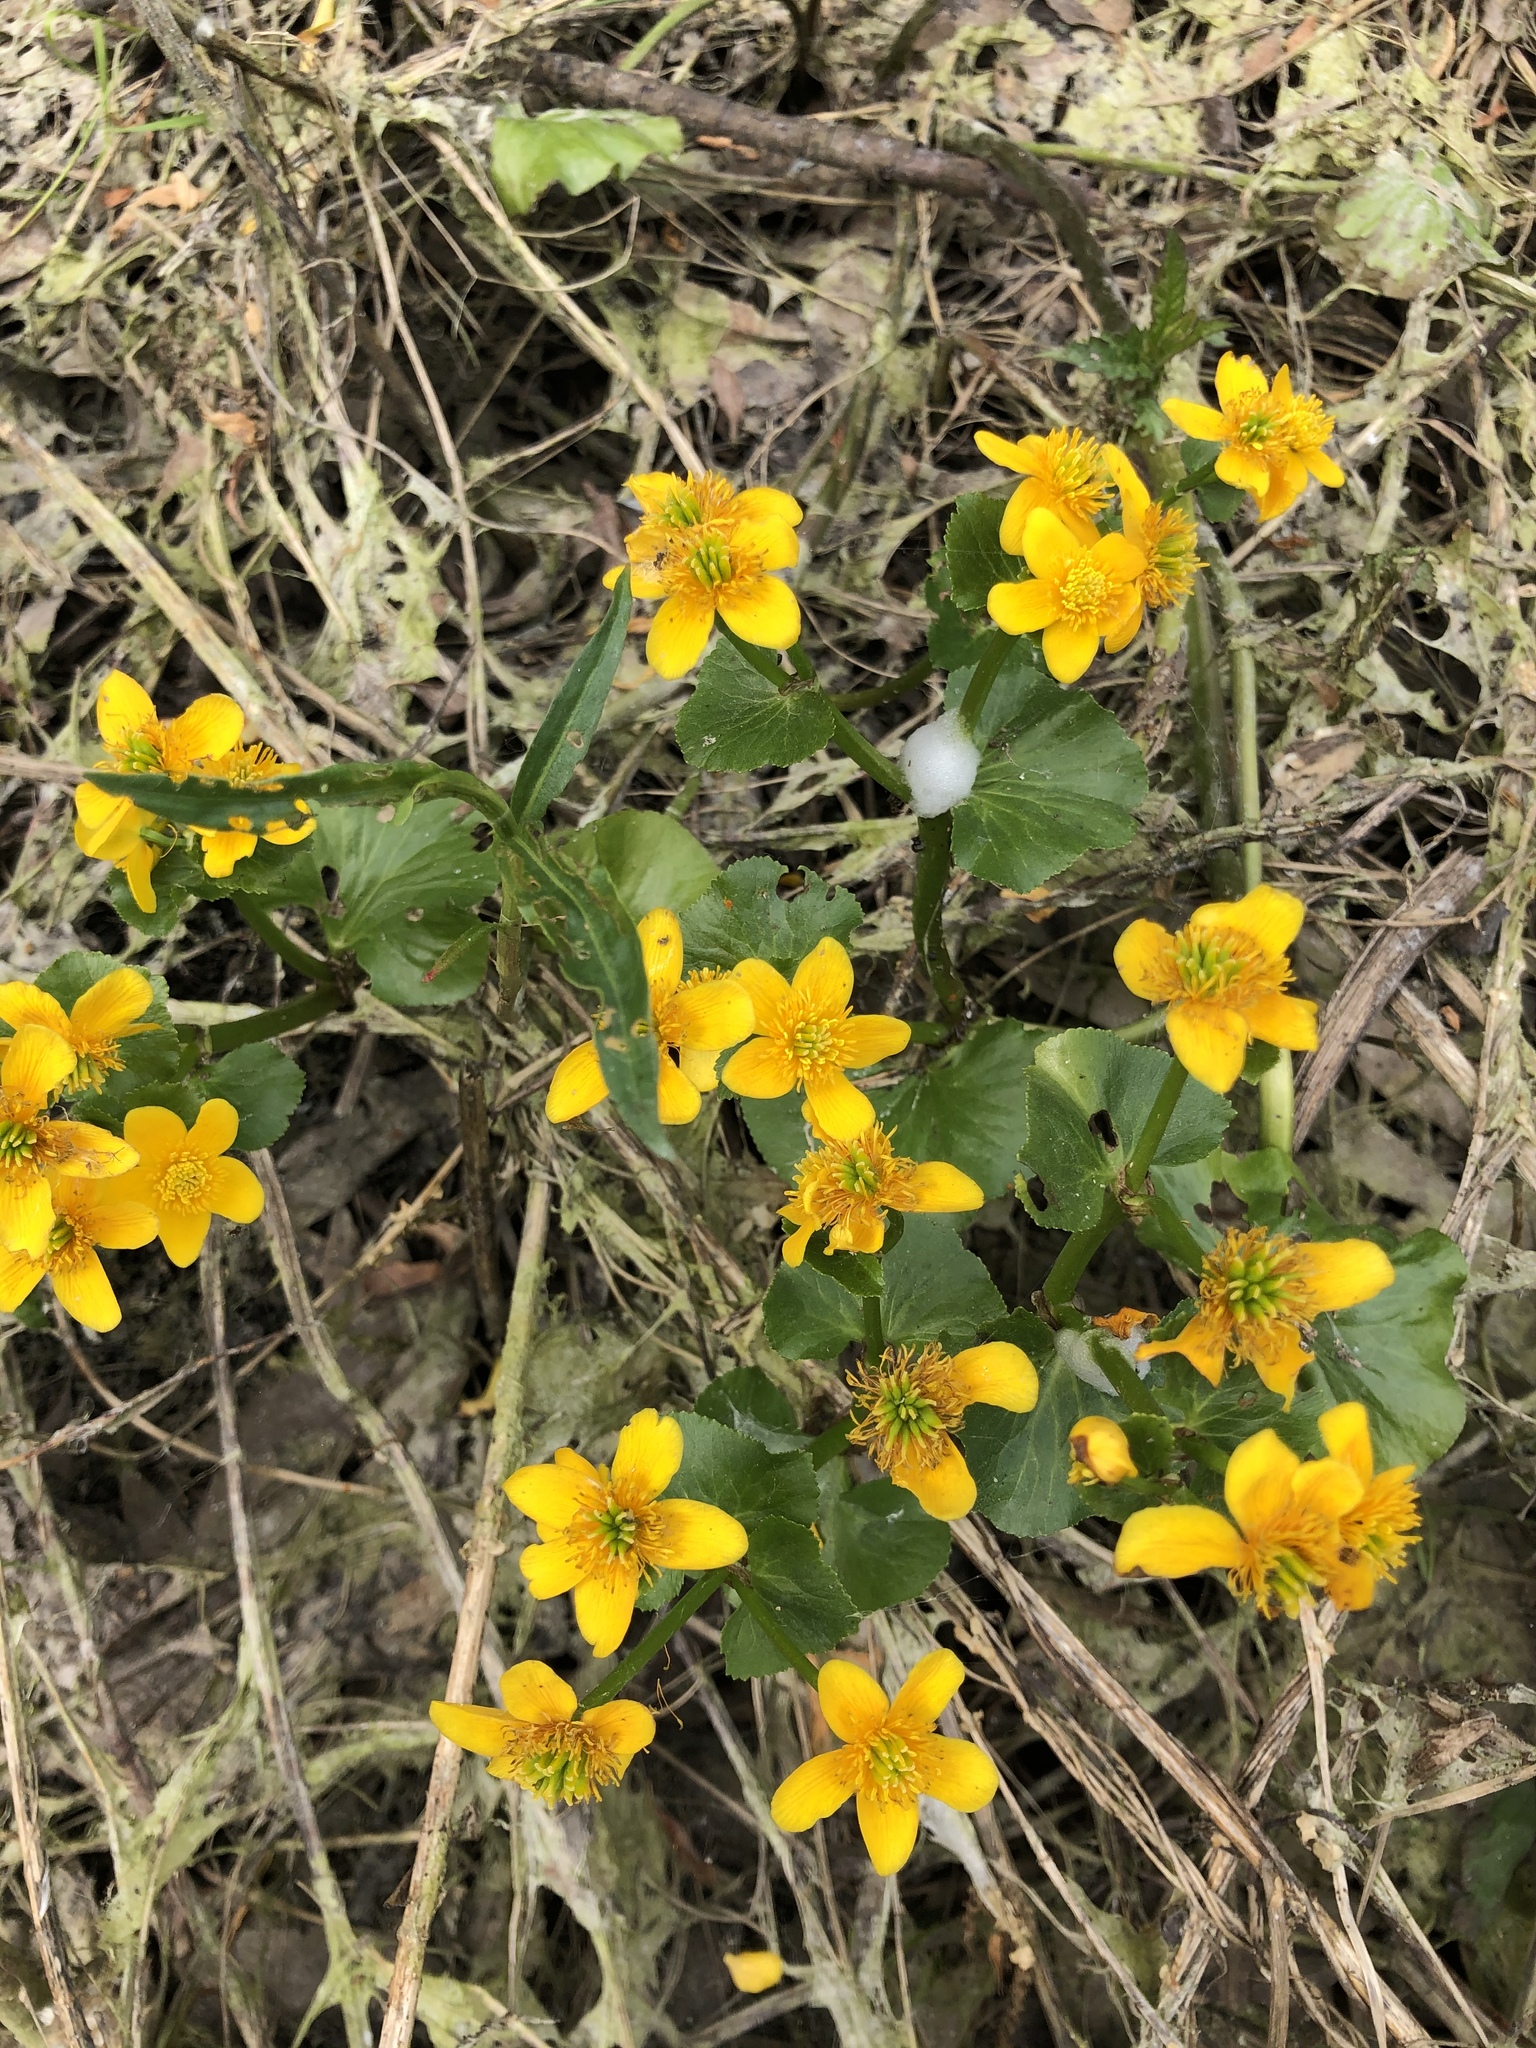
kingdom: Plantae
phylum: Tracheophyta
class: Magnoliopsida
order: Ranunculales
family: Ranunculaceae
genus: Caltha
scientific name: Caltha palustris
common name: Marsh marigold
